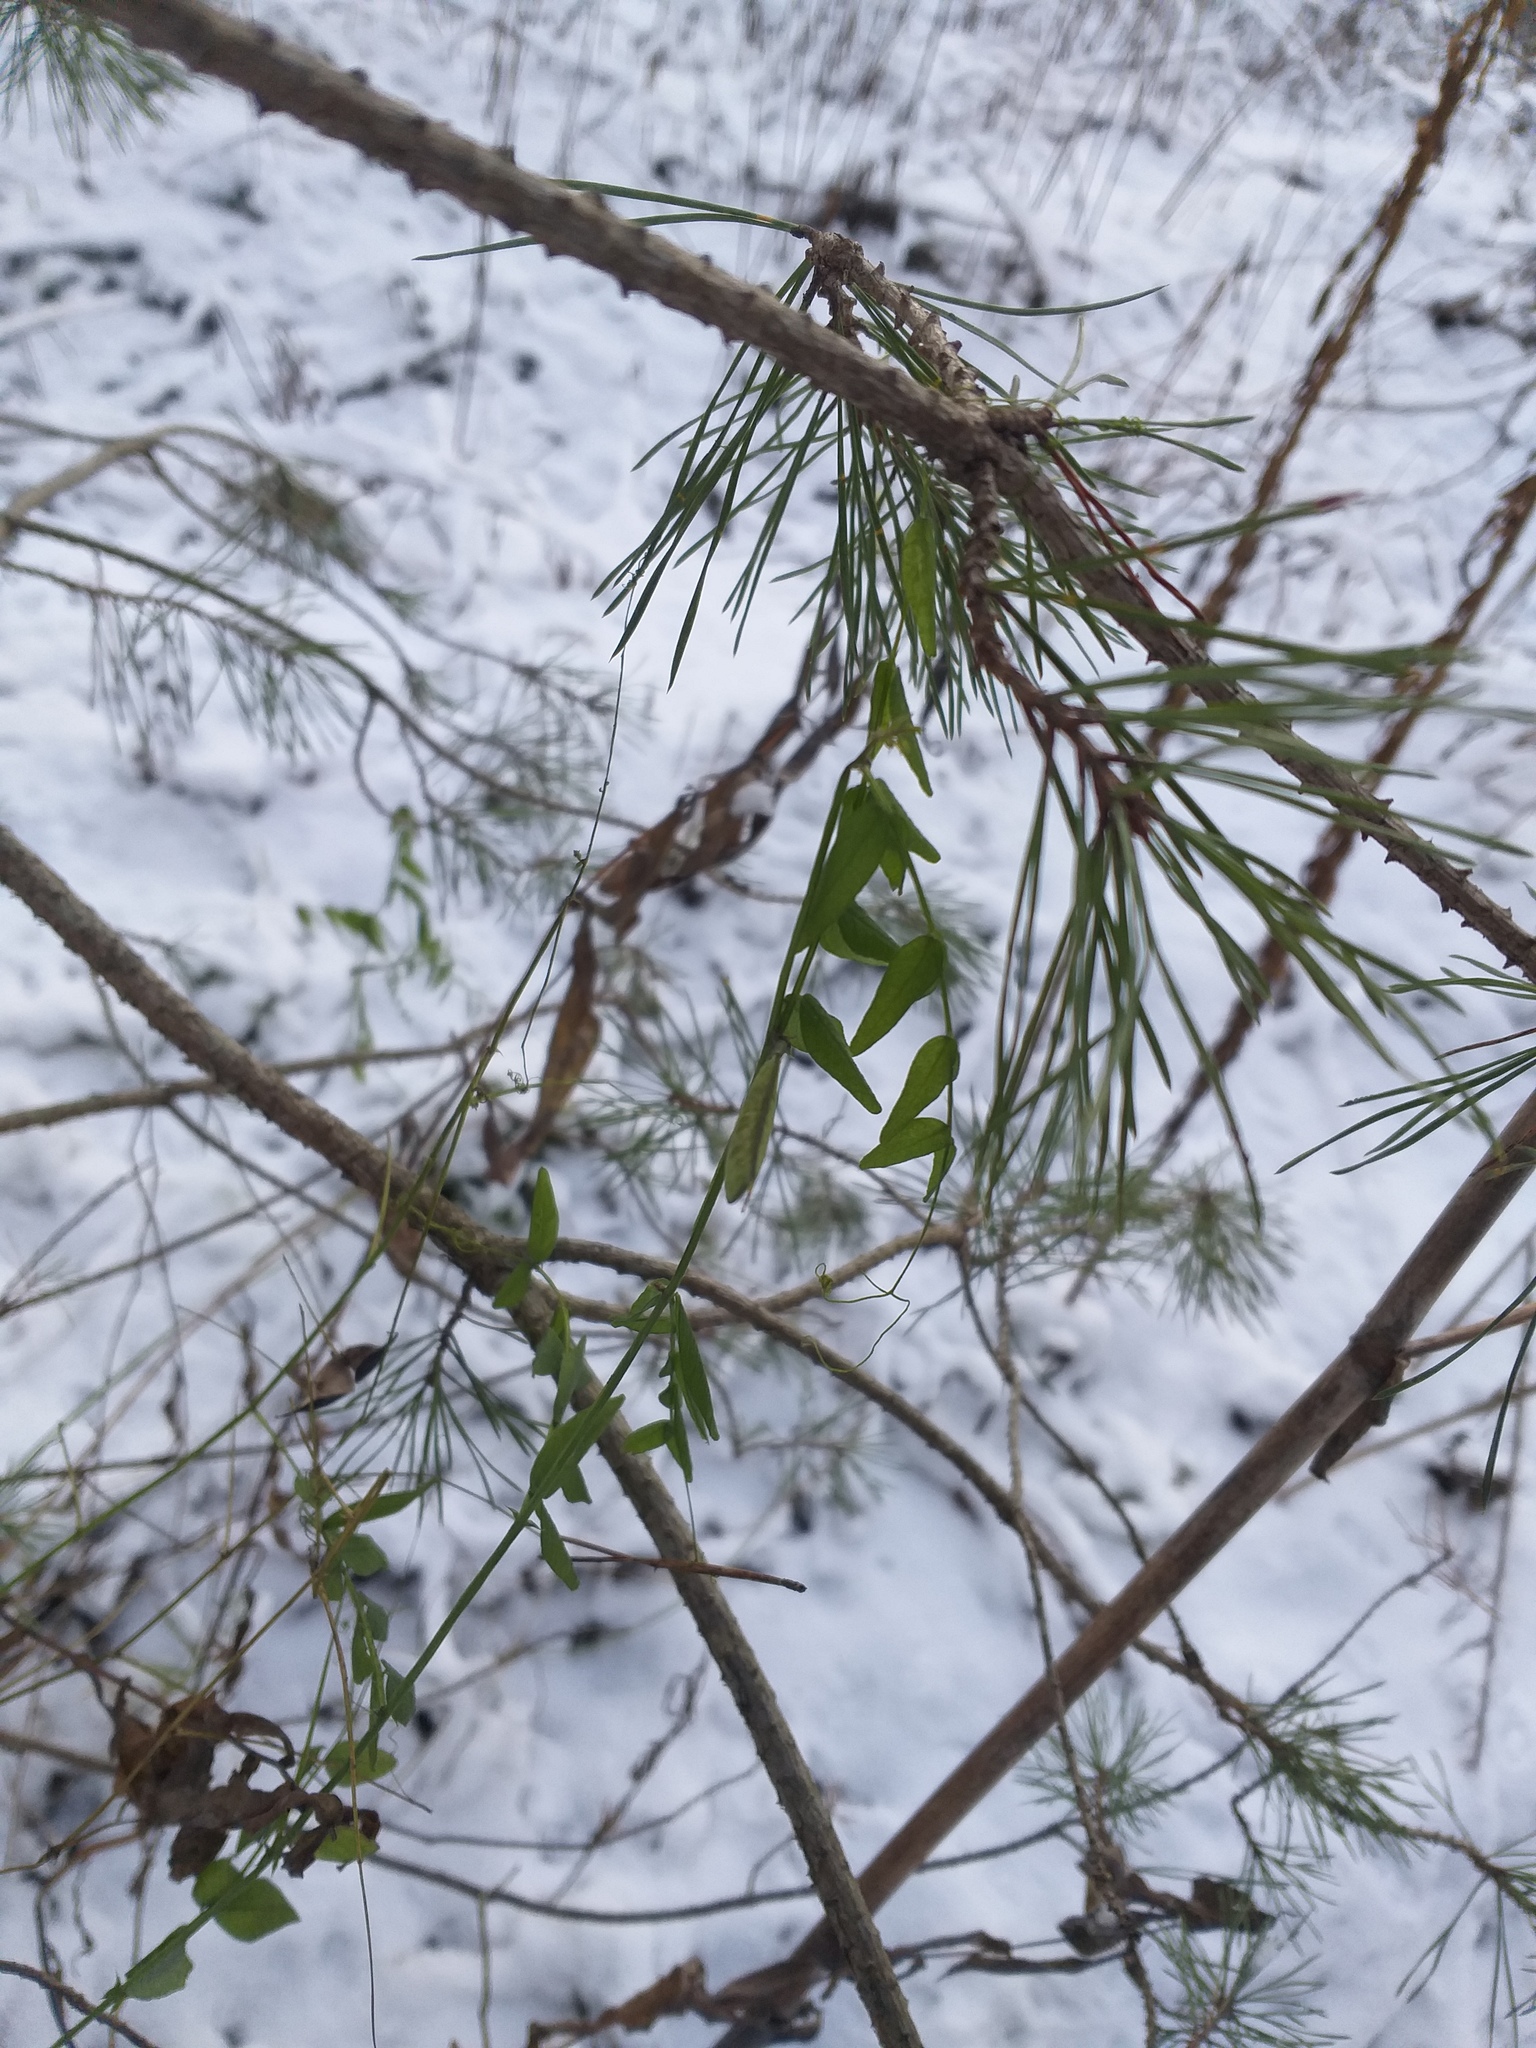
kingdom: Plantae
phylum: Tracheophyta
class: Magnoliopsida
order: Fabales
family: Fabaceae
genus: Vicia
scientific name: Vicia sepium
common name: Bush vetch
